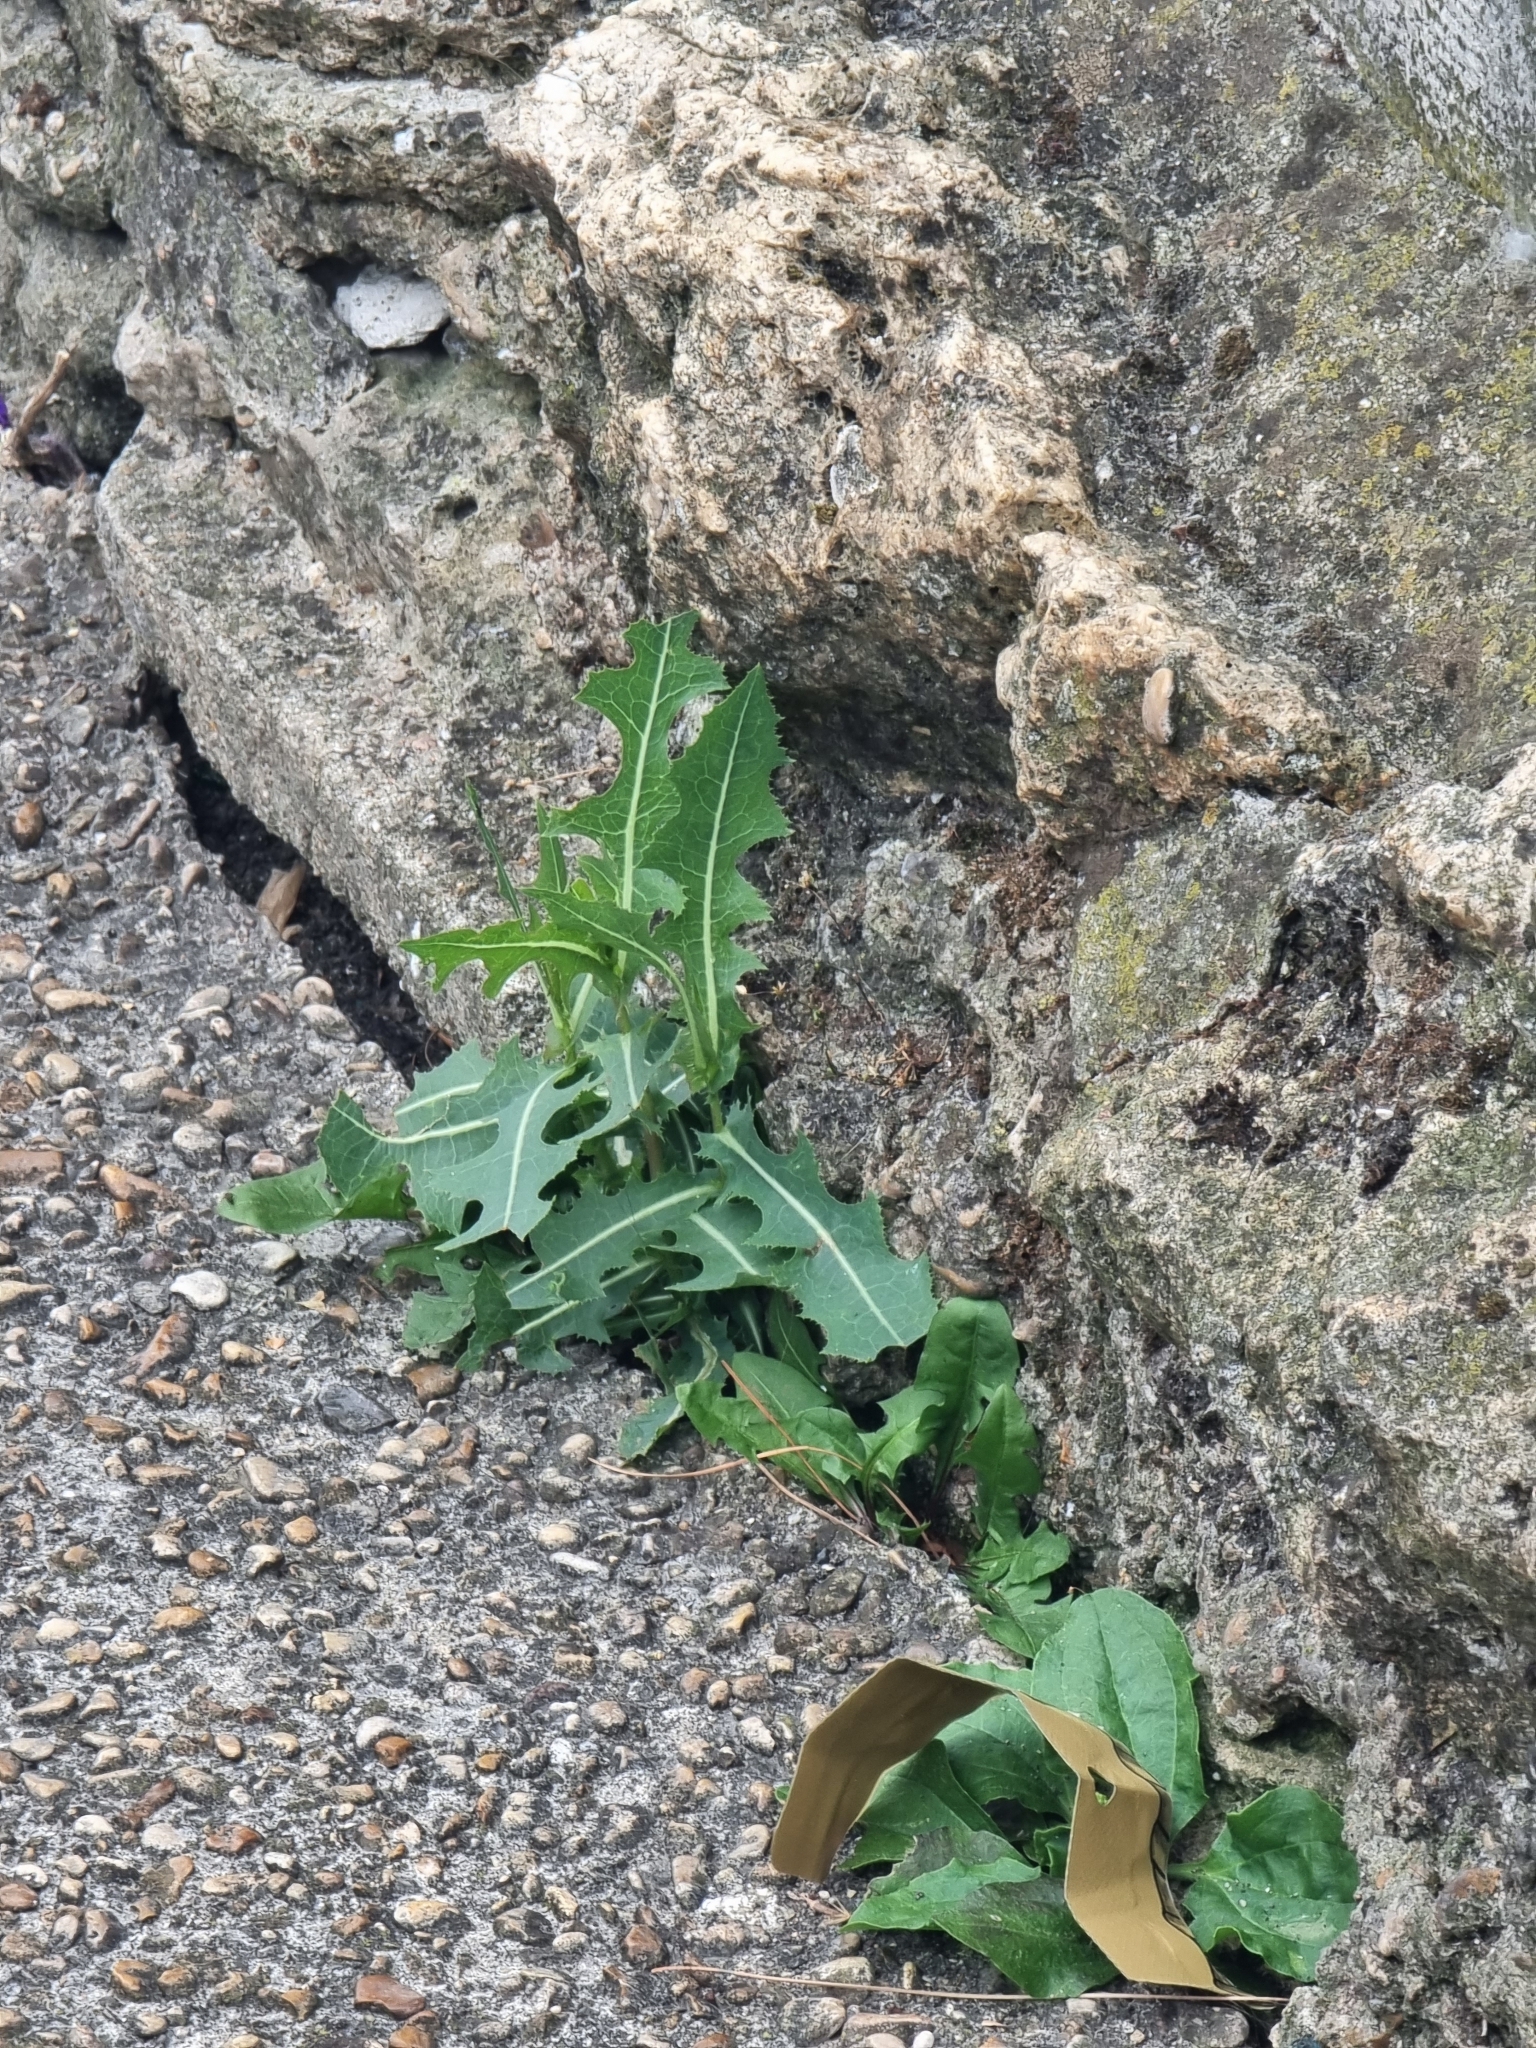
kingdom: Plantae
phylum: Tracheophyta
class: Magnoliopsida
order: Asterales
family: Asteraceae
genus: Lactuca
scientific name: Lactuca serriola
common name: Prickly lettuce
